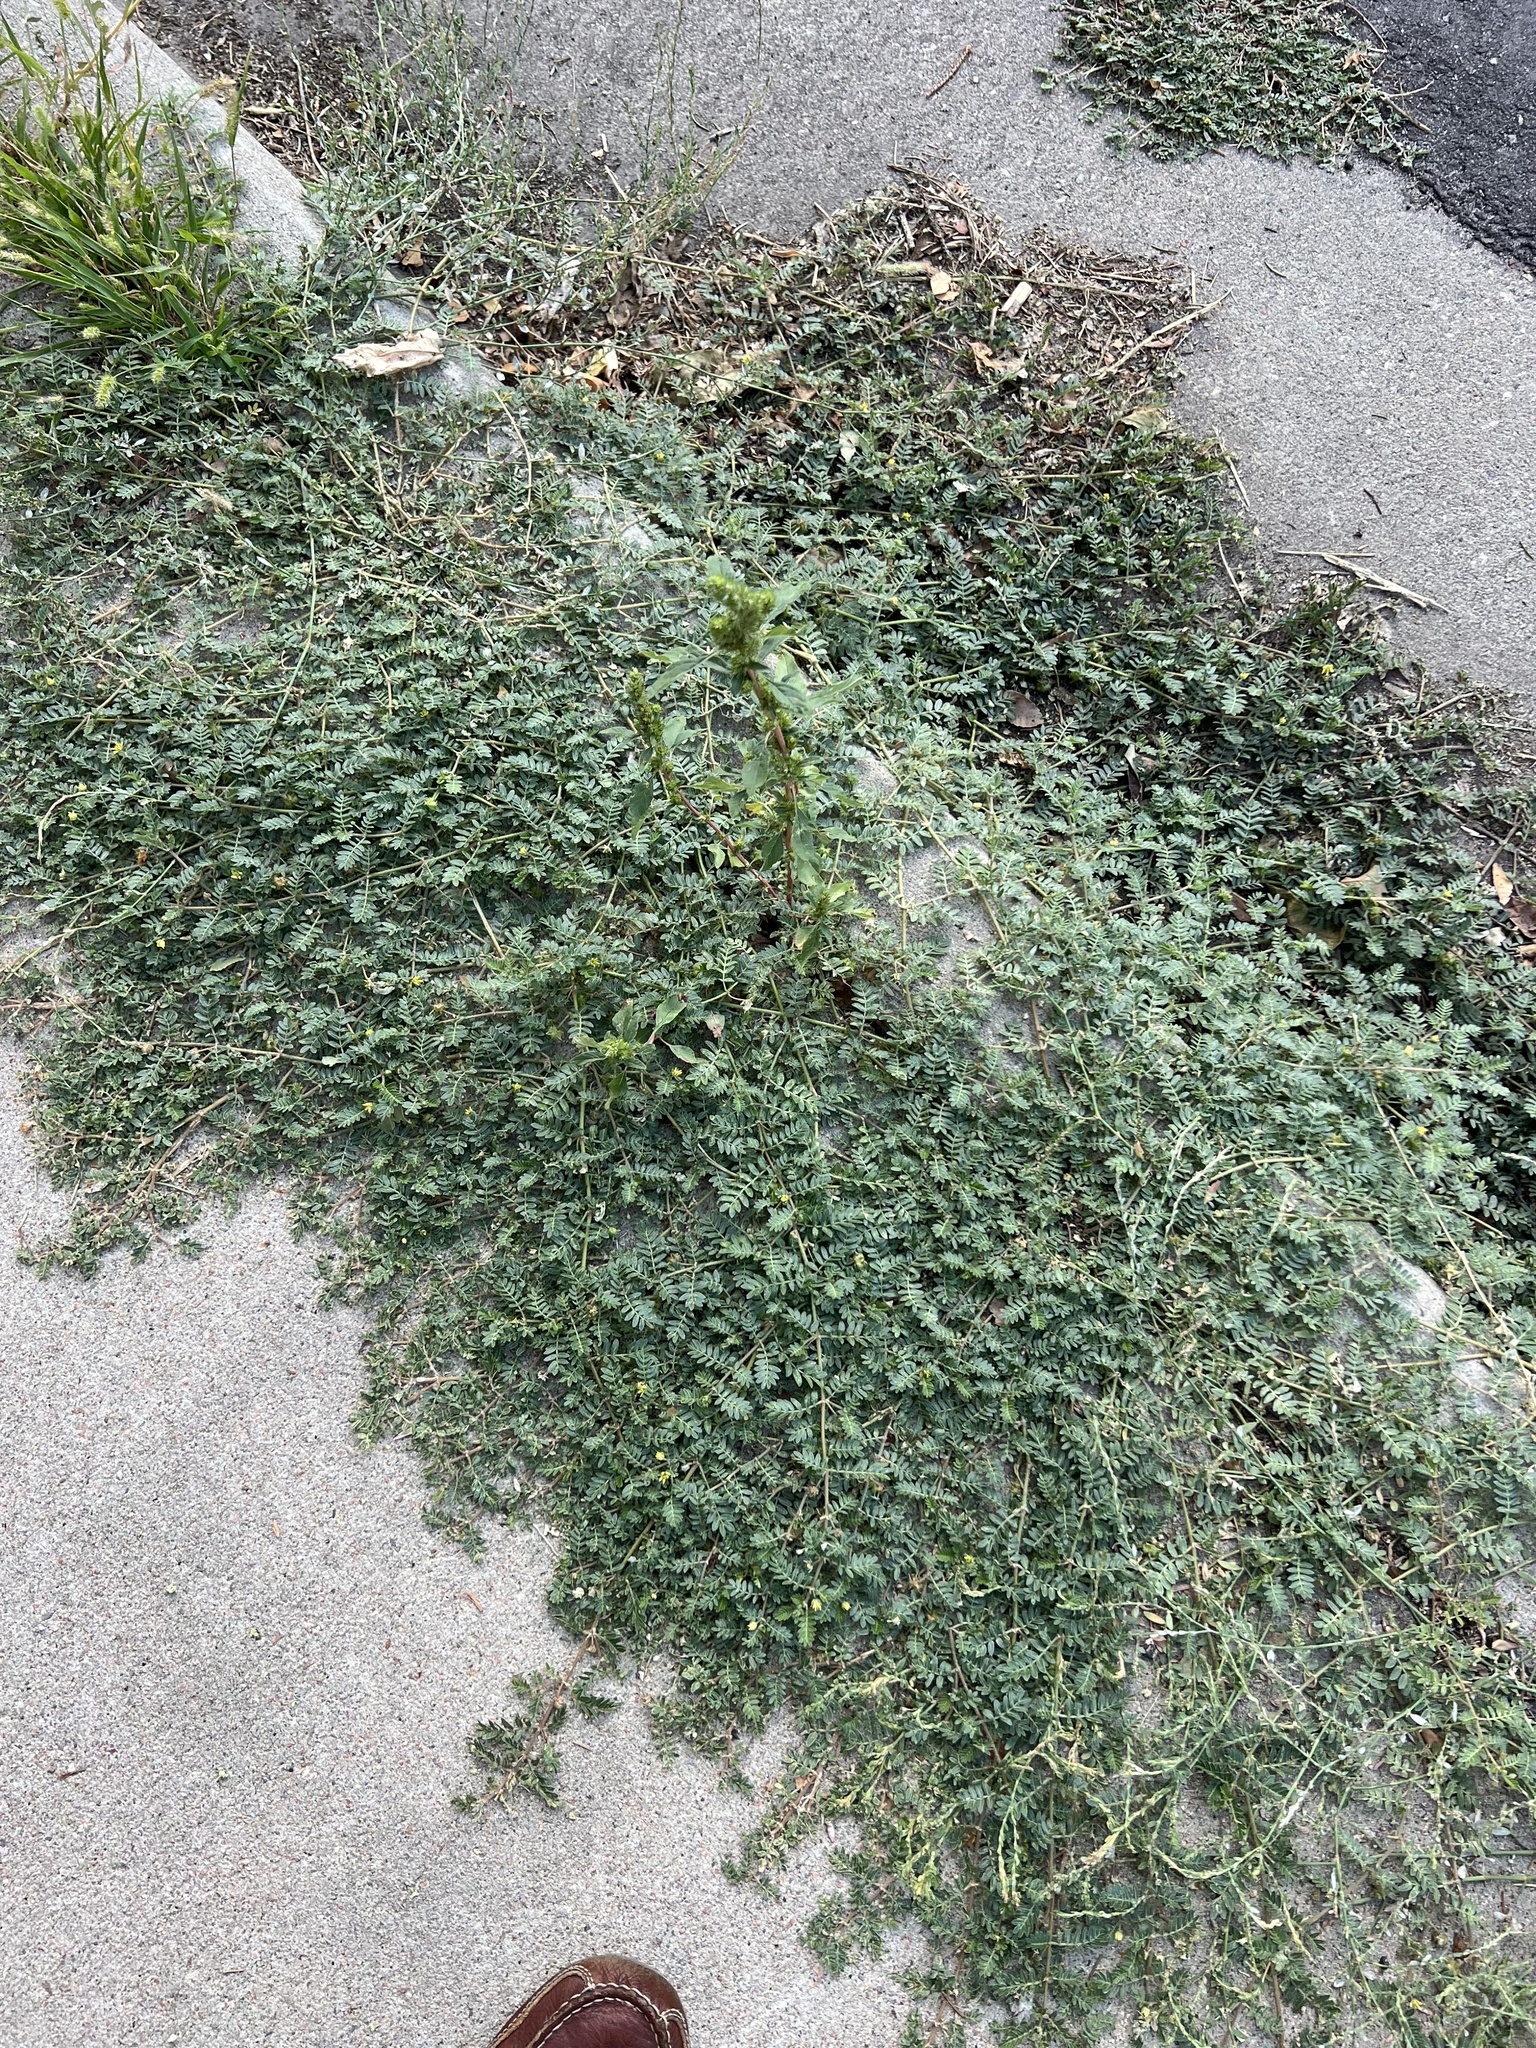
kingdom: Plantae
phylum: Tracheophyta
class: Magnoliopsida
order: Zygophyllales
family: Zygophyllaceae
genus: Tribulus
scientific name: Tribulus terrestris
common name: Puncturevine
